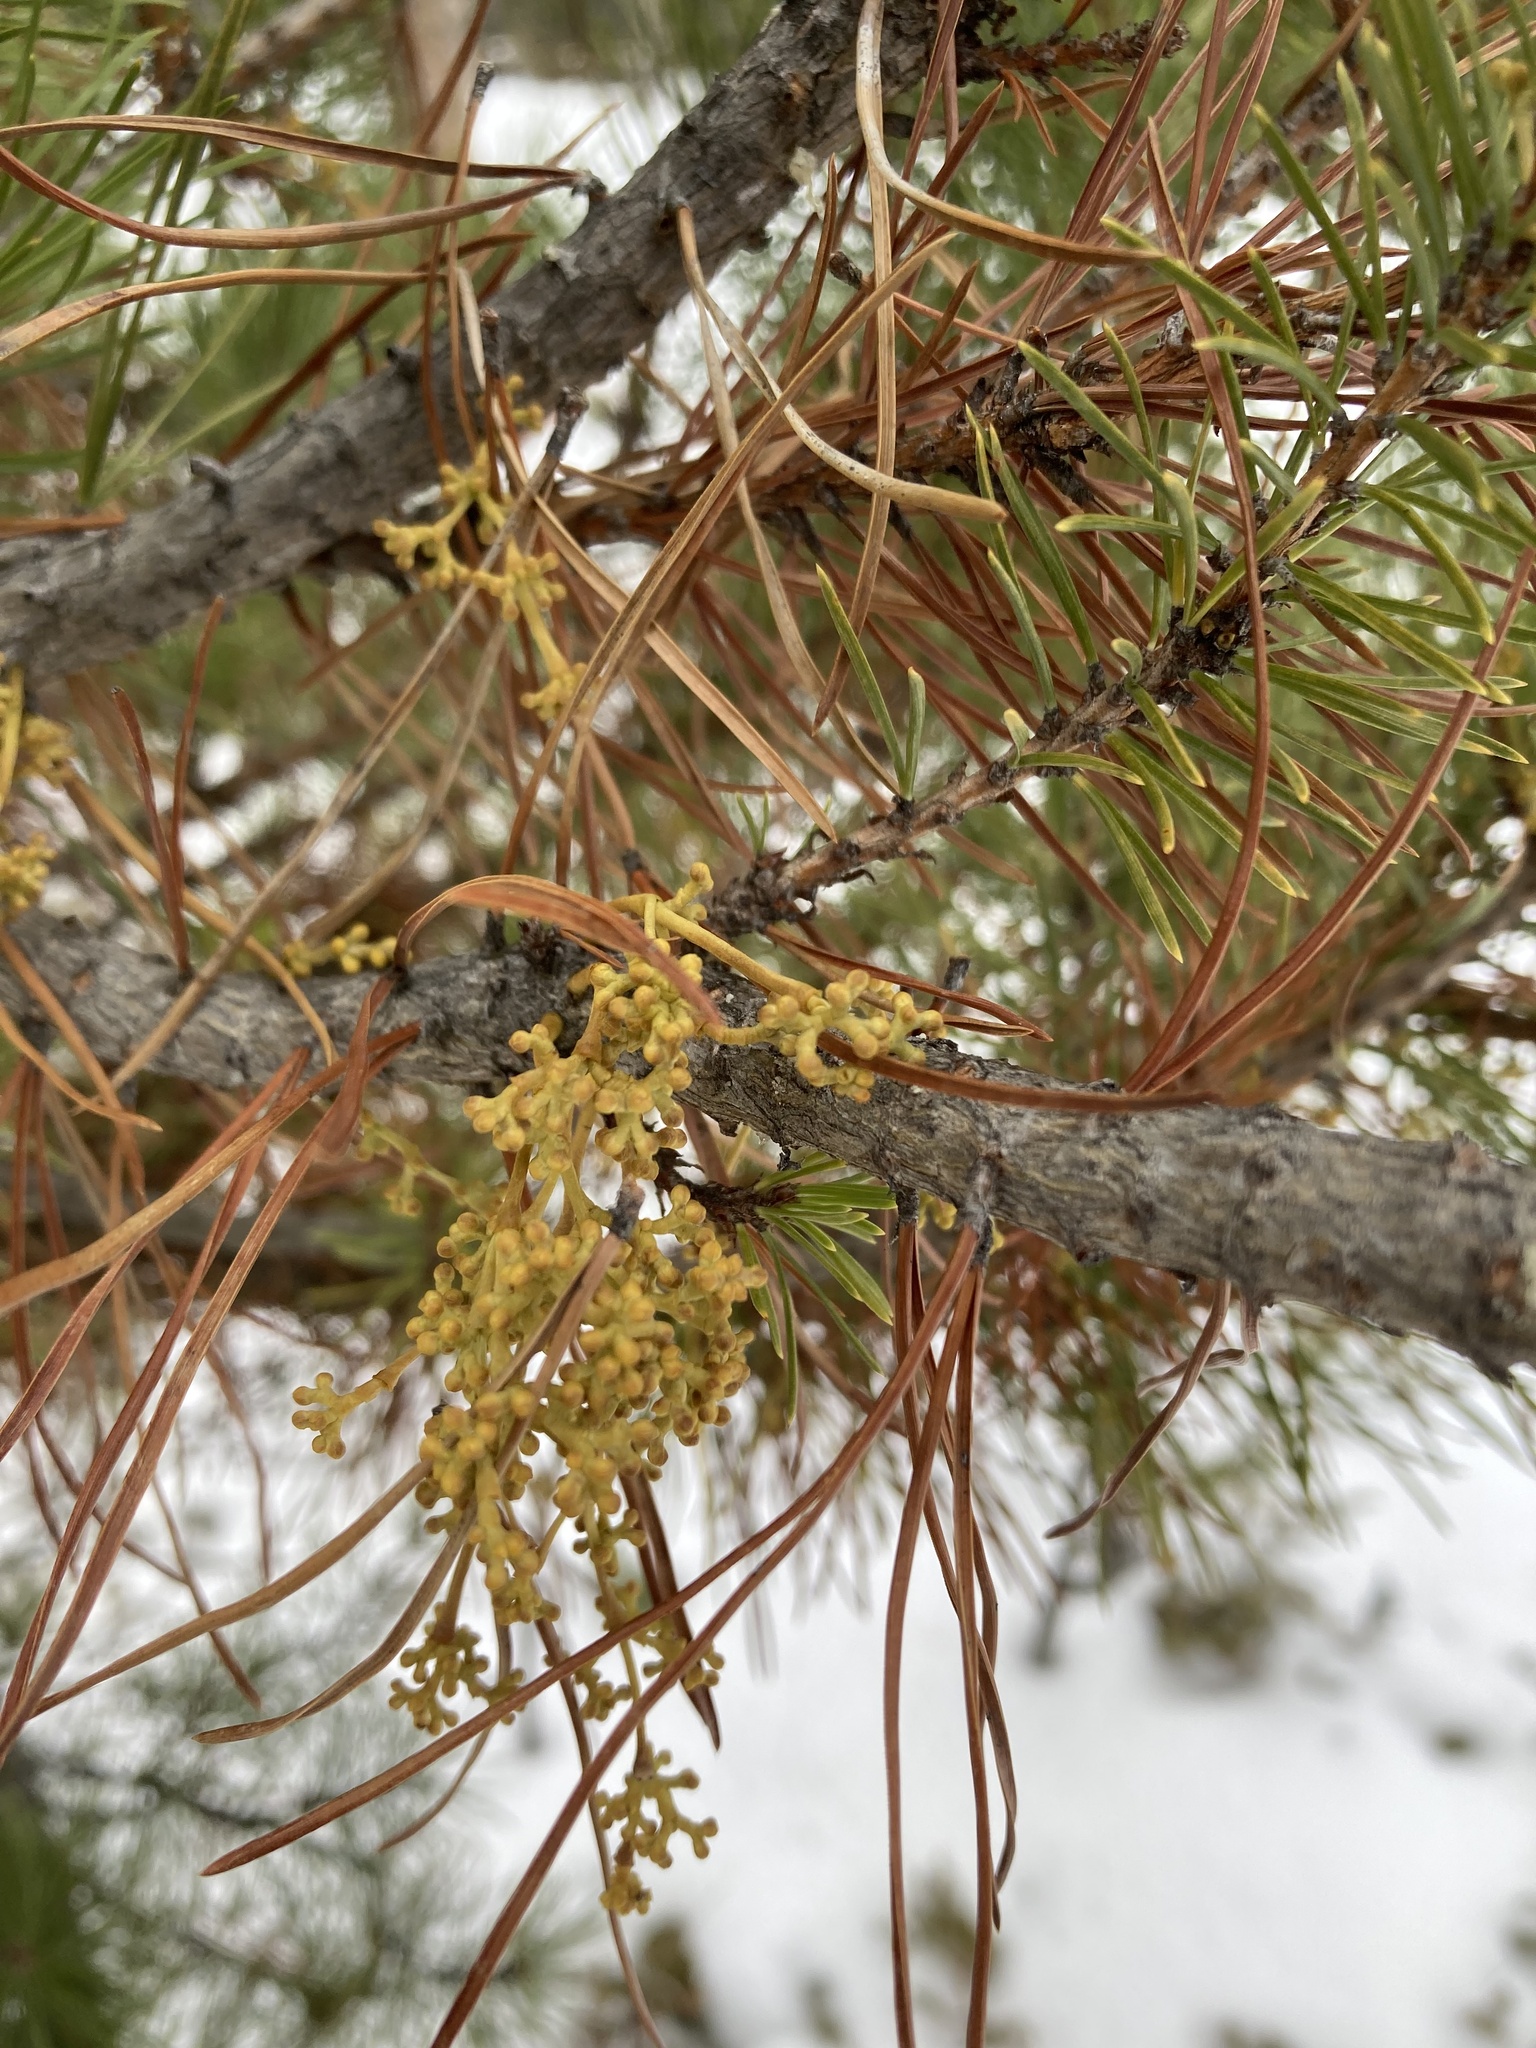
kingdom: Plantae
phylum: Tracheophyta
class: Magnoliopsida
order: Santalales
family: Viscaceae
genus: Arceuthobium
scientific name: Arceuthobium americanum
